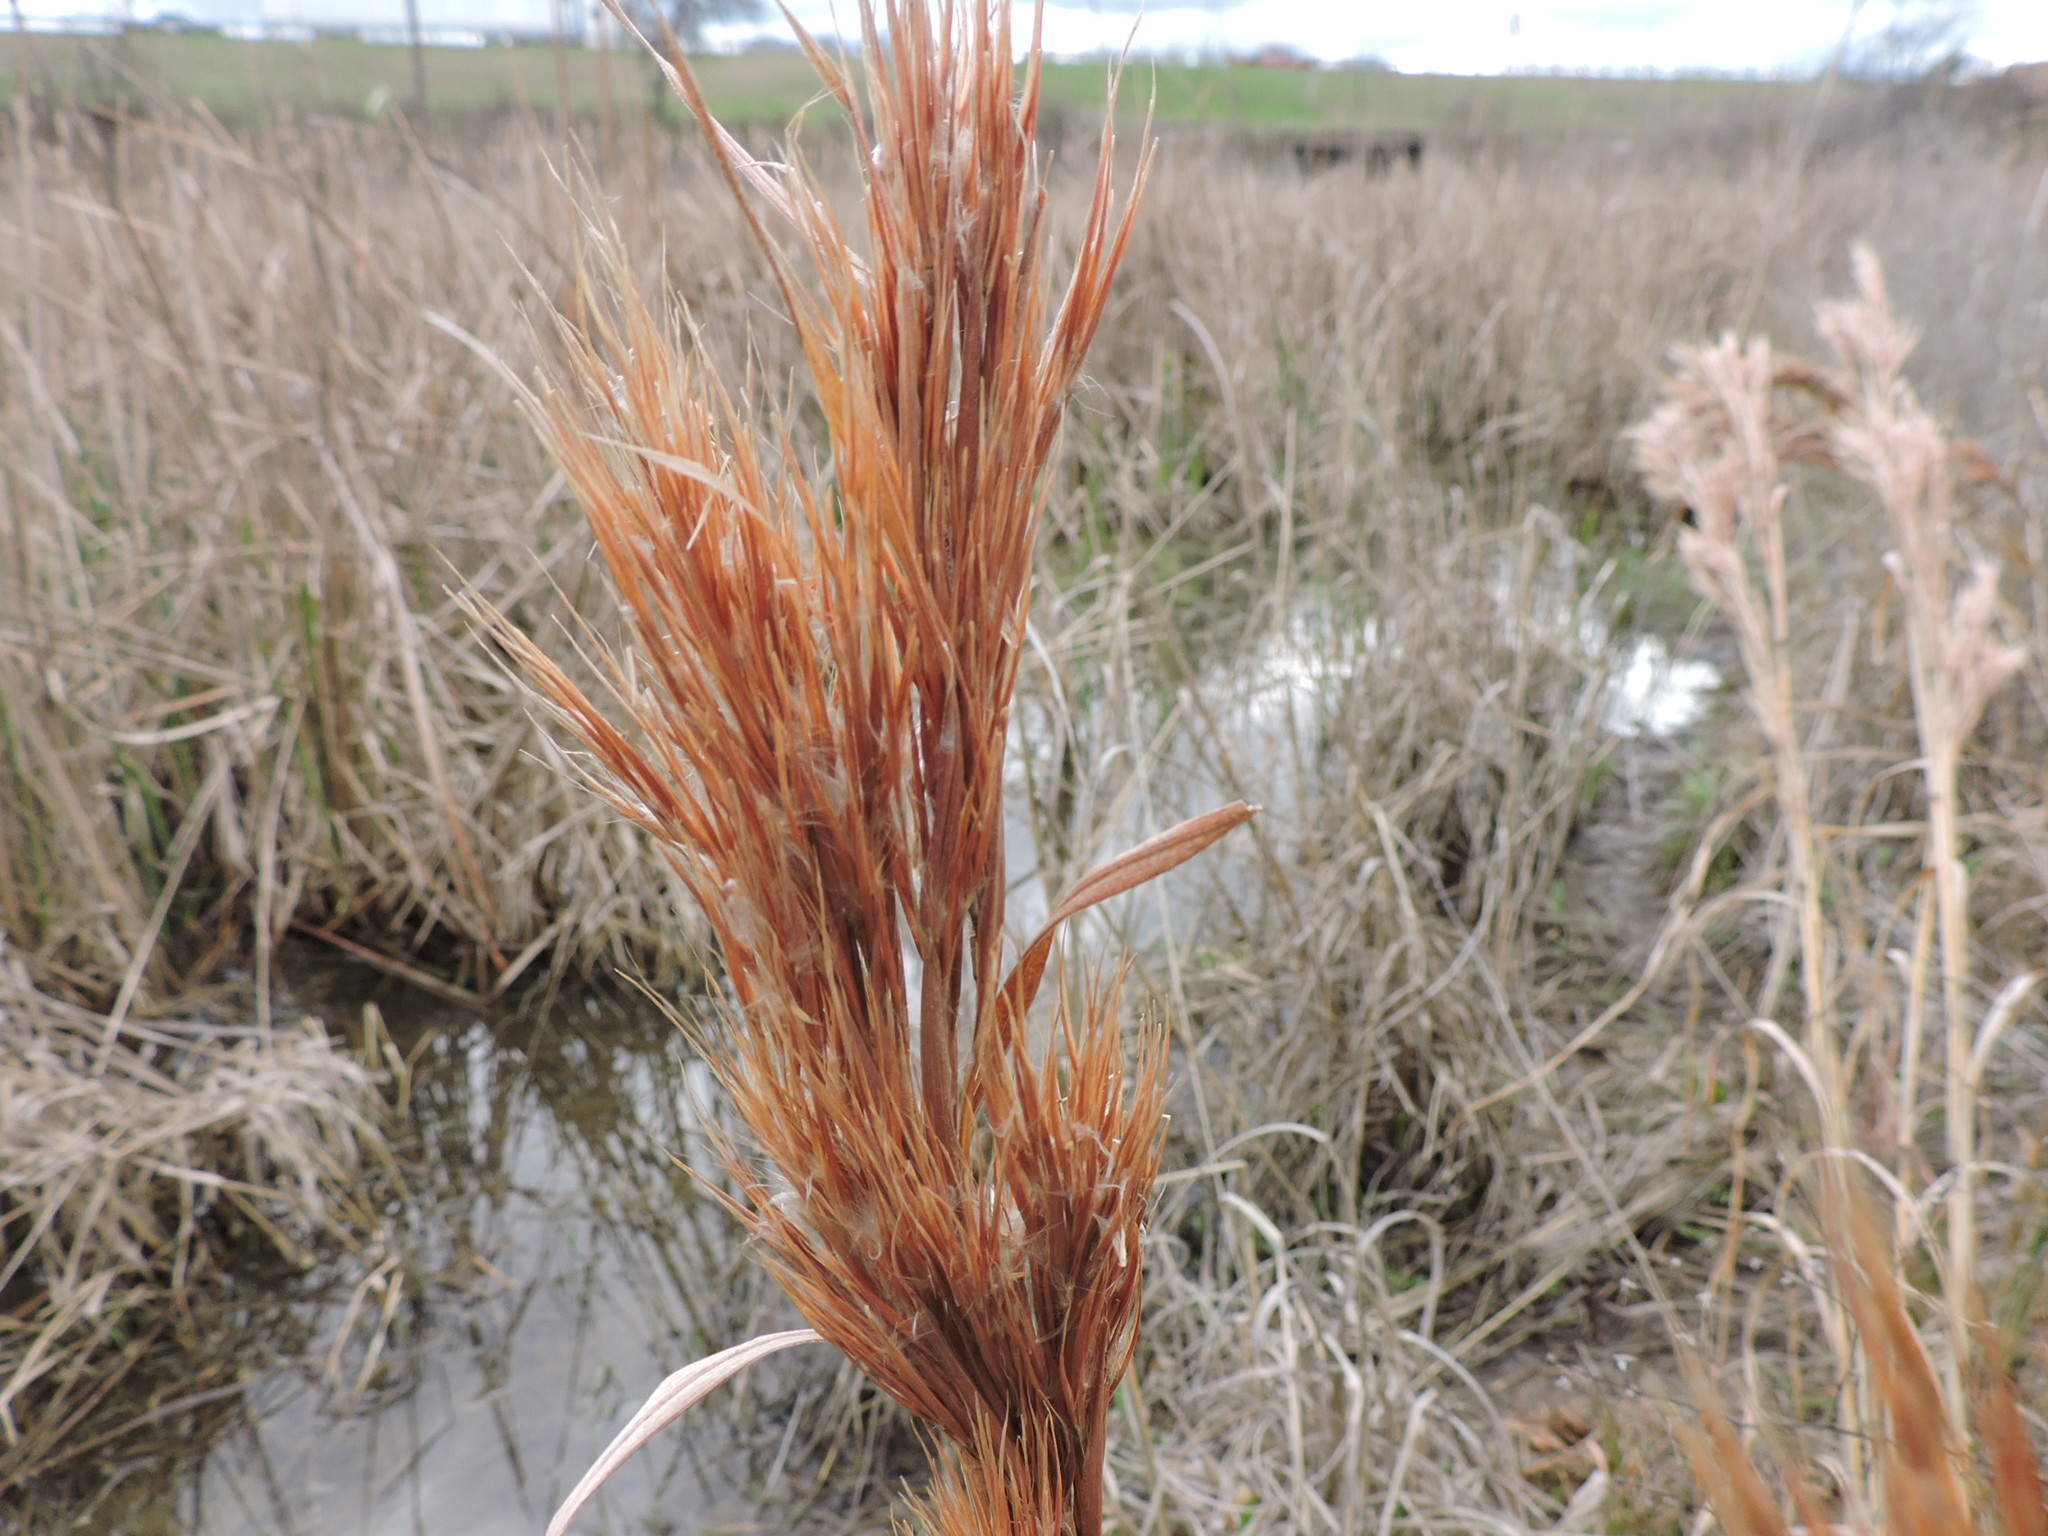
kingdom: Plantae
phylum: Tracheophyta
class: Liliopsida
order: Poales
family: Poaceae
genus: Andropogon
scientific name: Andropogon tenuispatheus
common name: Bushy bluestem
